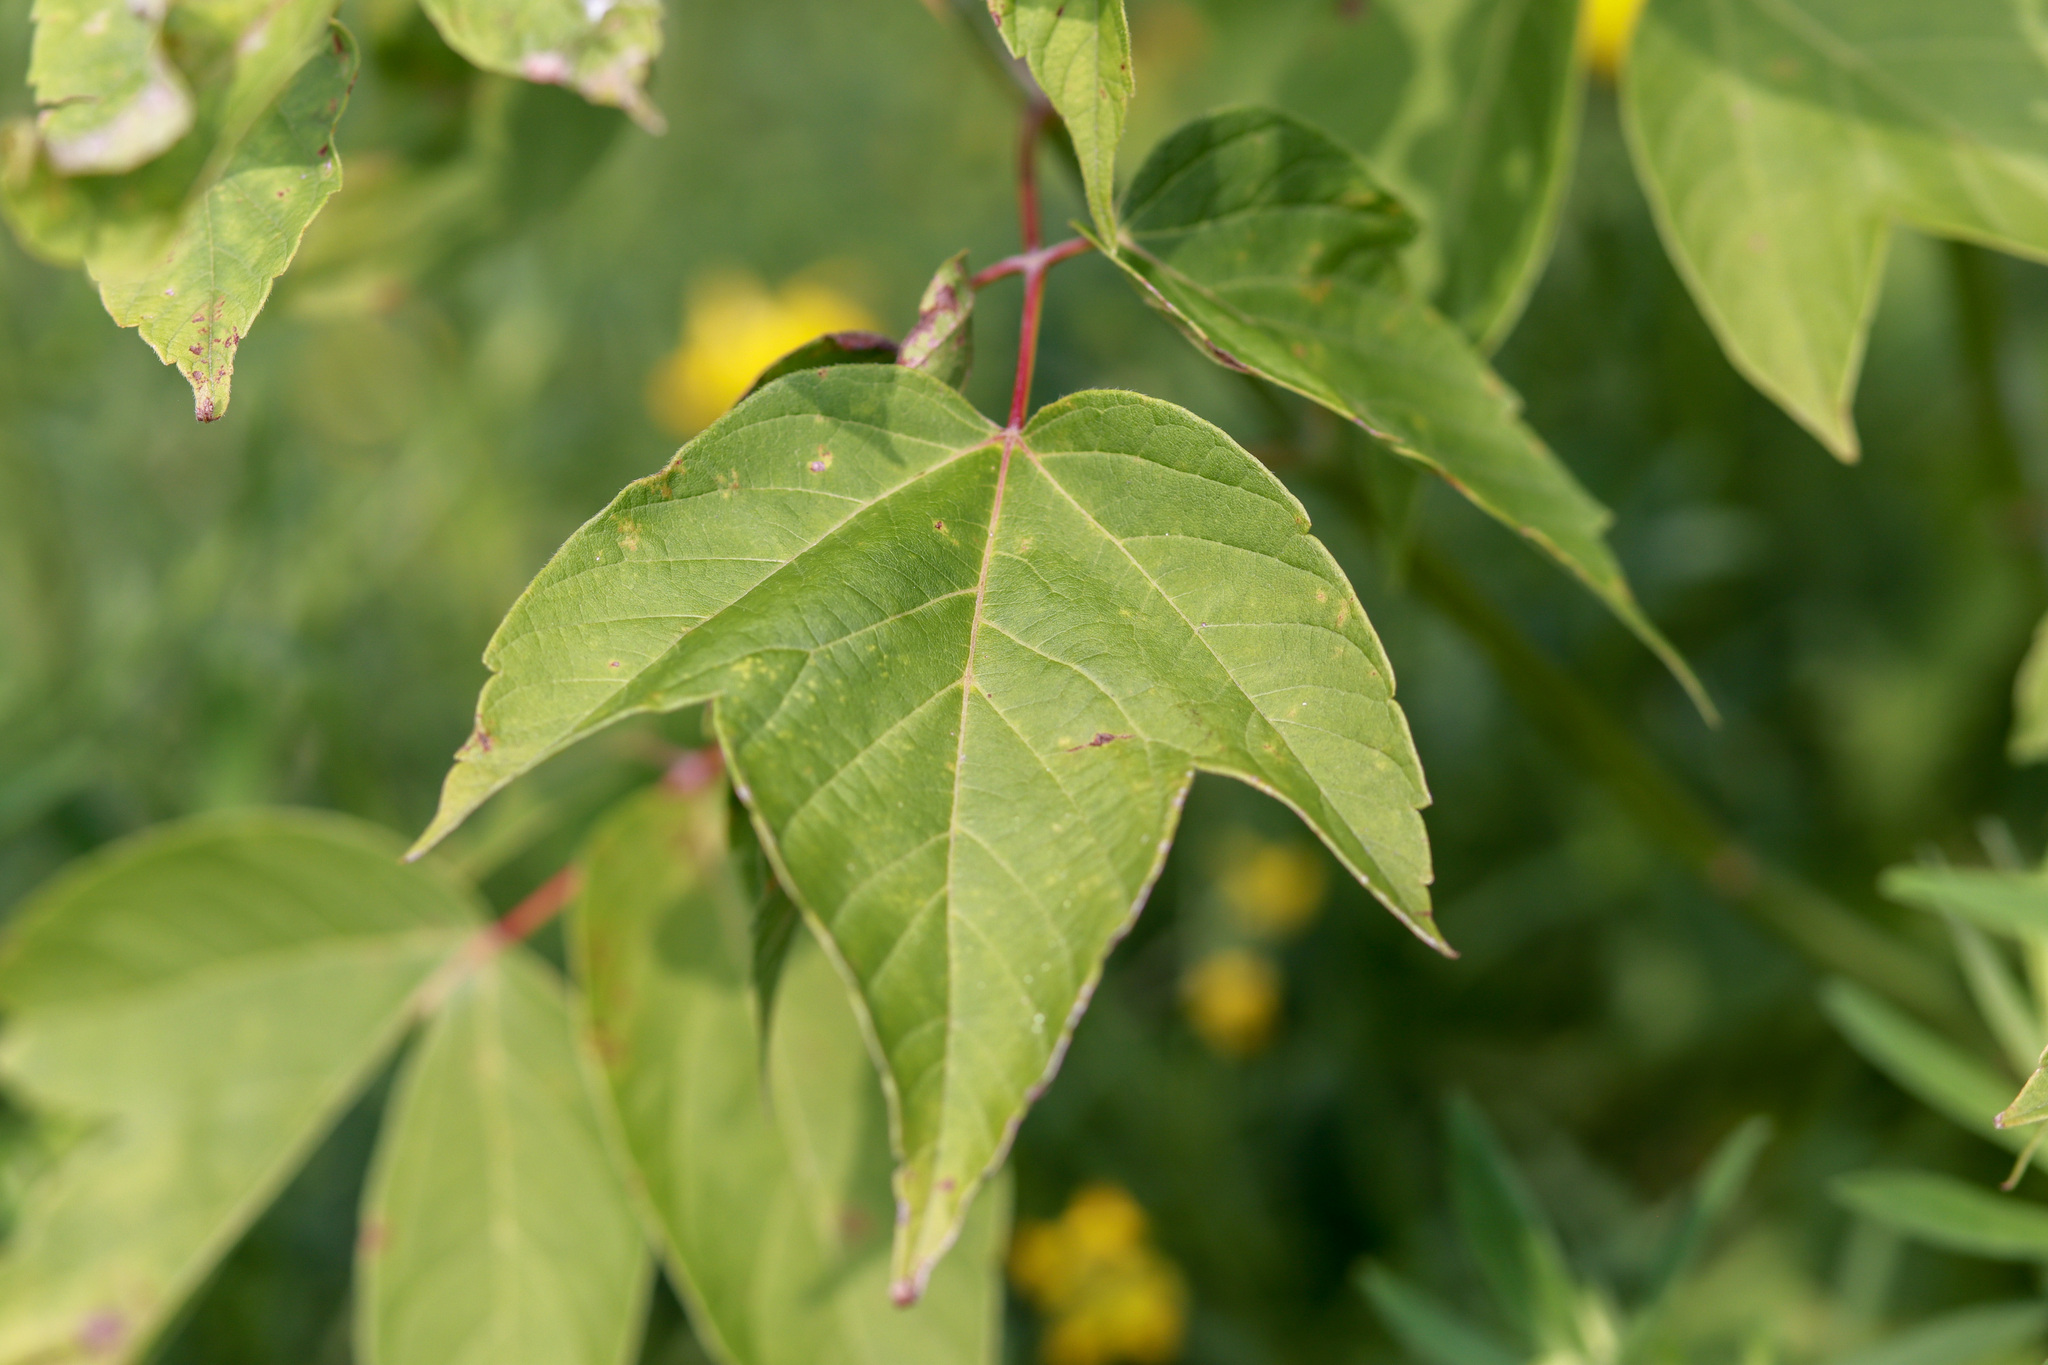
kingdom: Plantae
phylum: Tracheophyta
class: Magnoliopsida
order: Sapindales
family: Sapindaceae
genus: Acer
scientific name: Acer negundo
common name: Ashleaf maple
